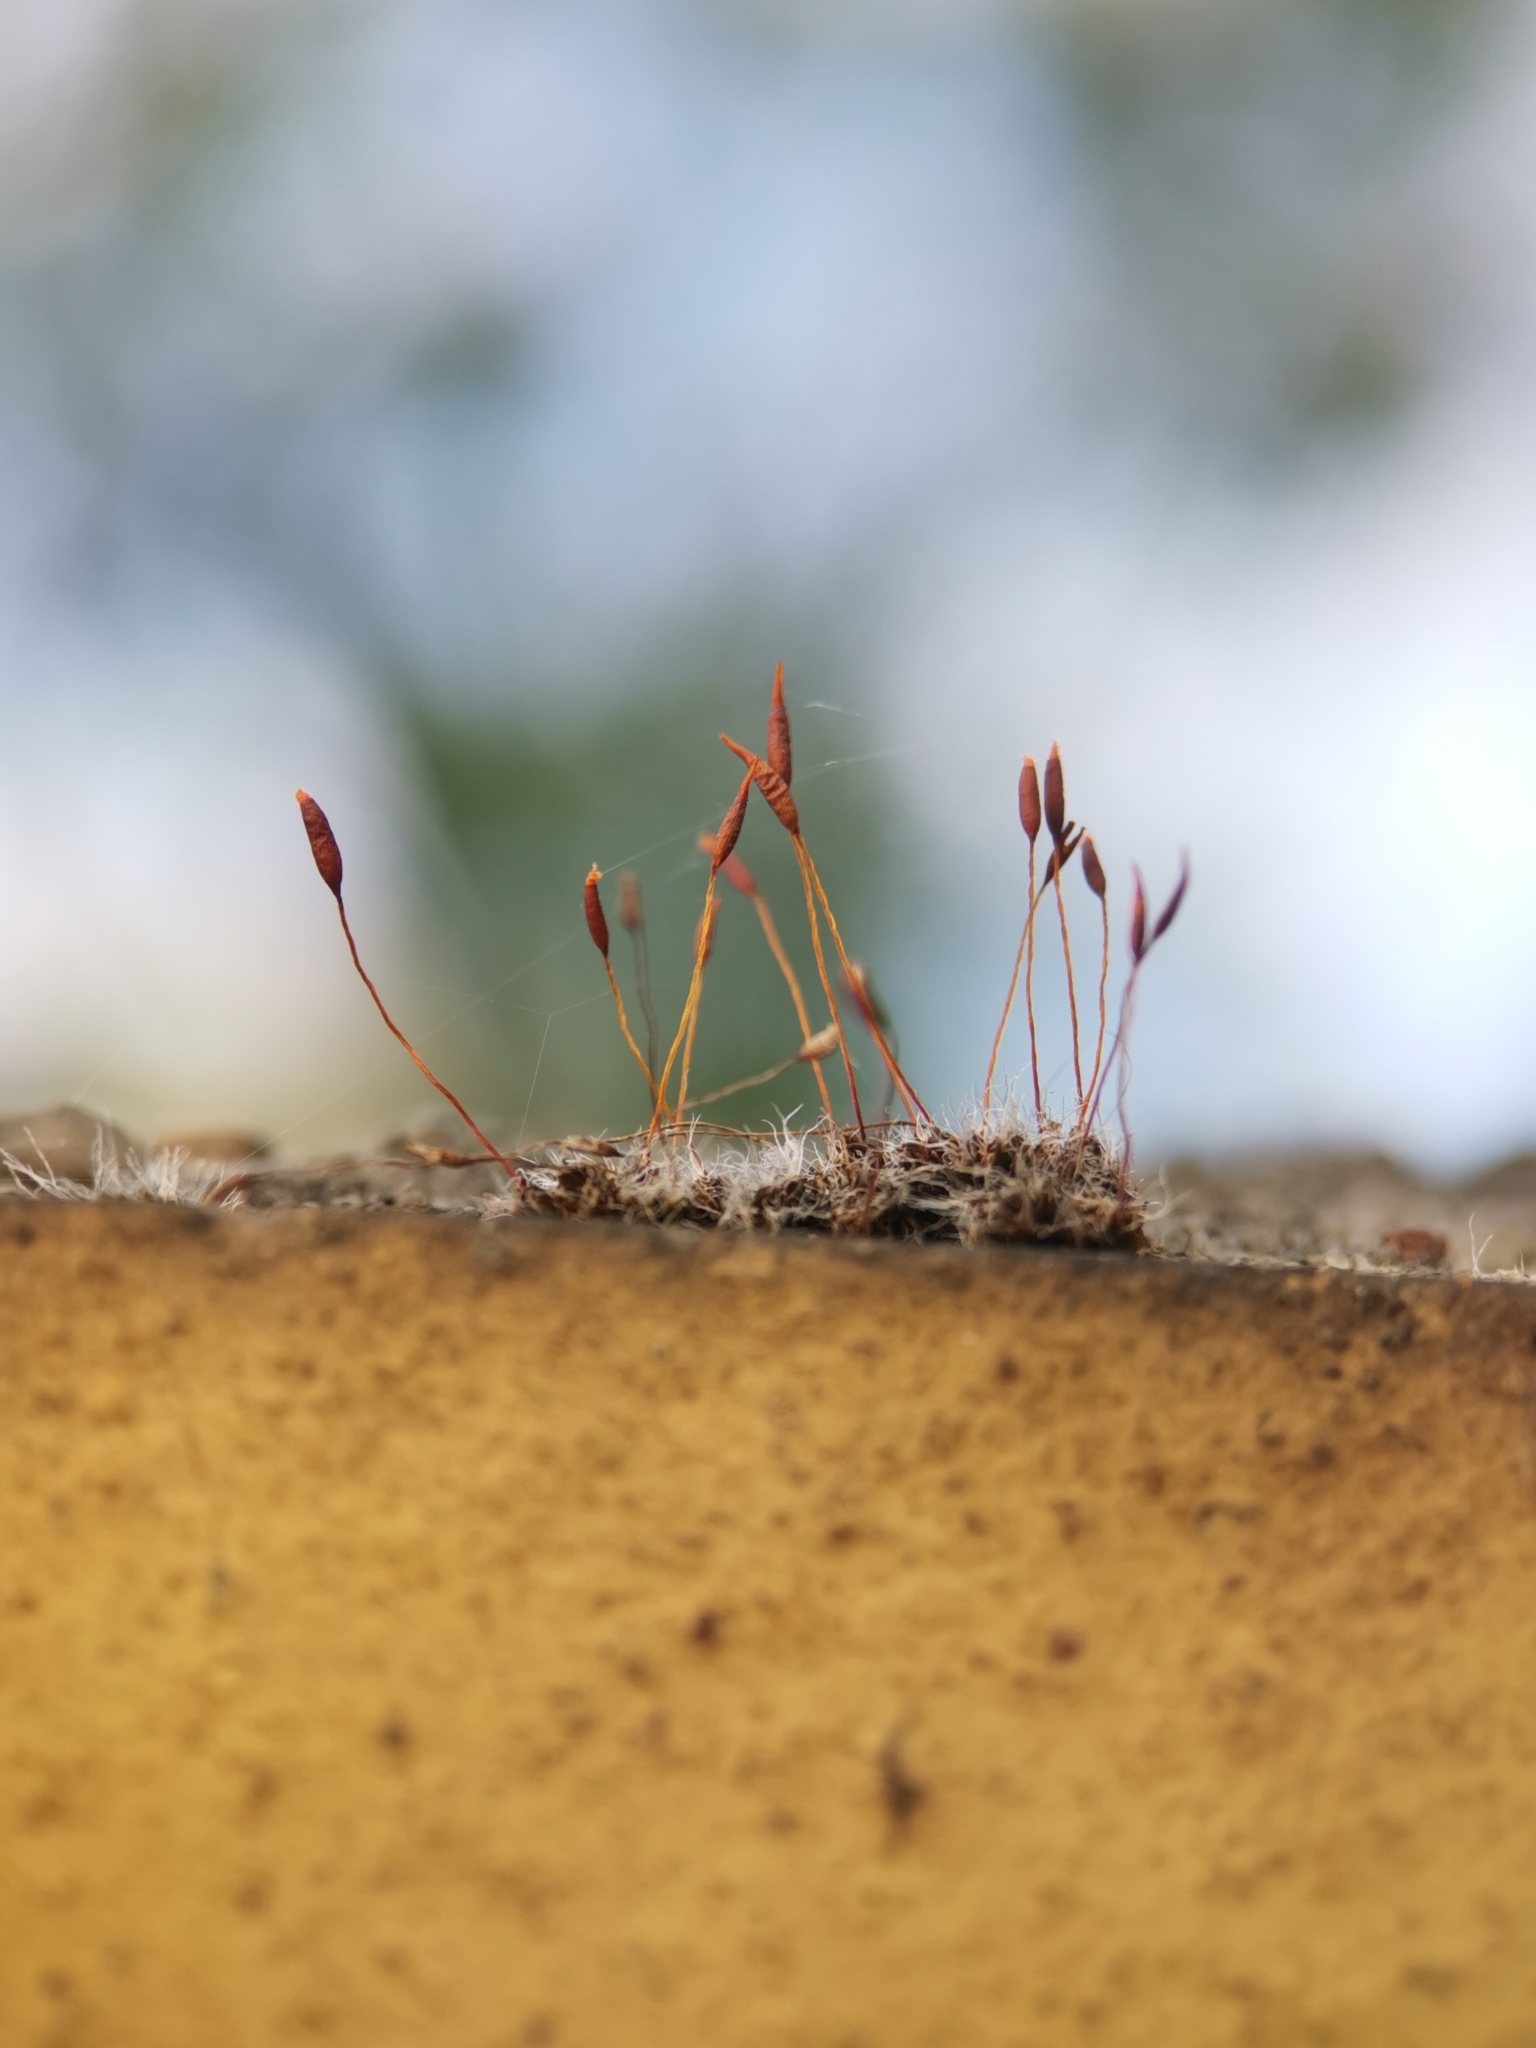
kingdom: Plantae
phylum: Bryophyta
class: Bryopsida
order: Pottiales
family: Pottiaceae
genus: Tortula
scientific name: Tortula muralis
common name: Wall screw-moss
